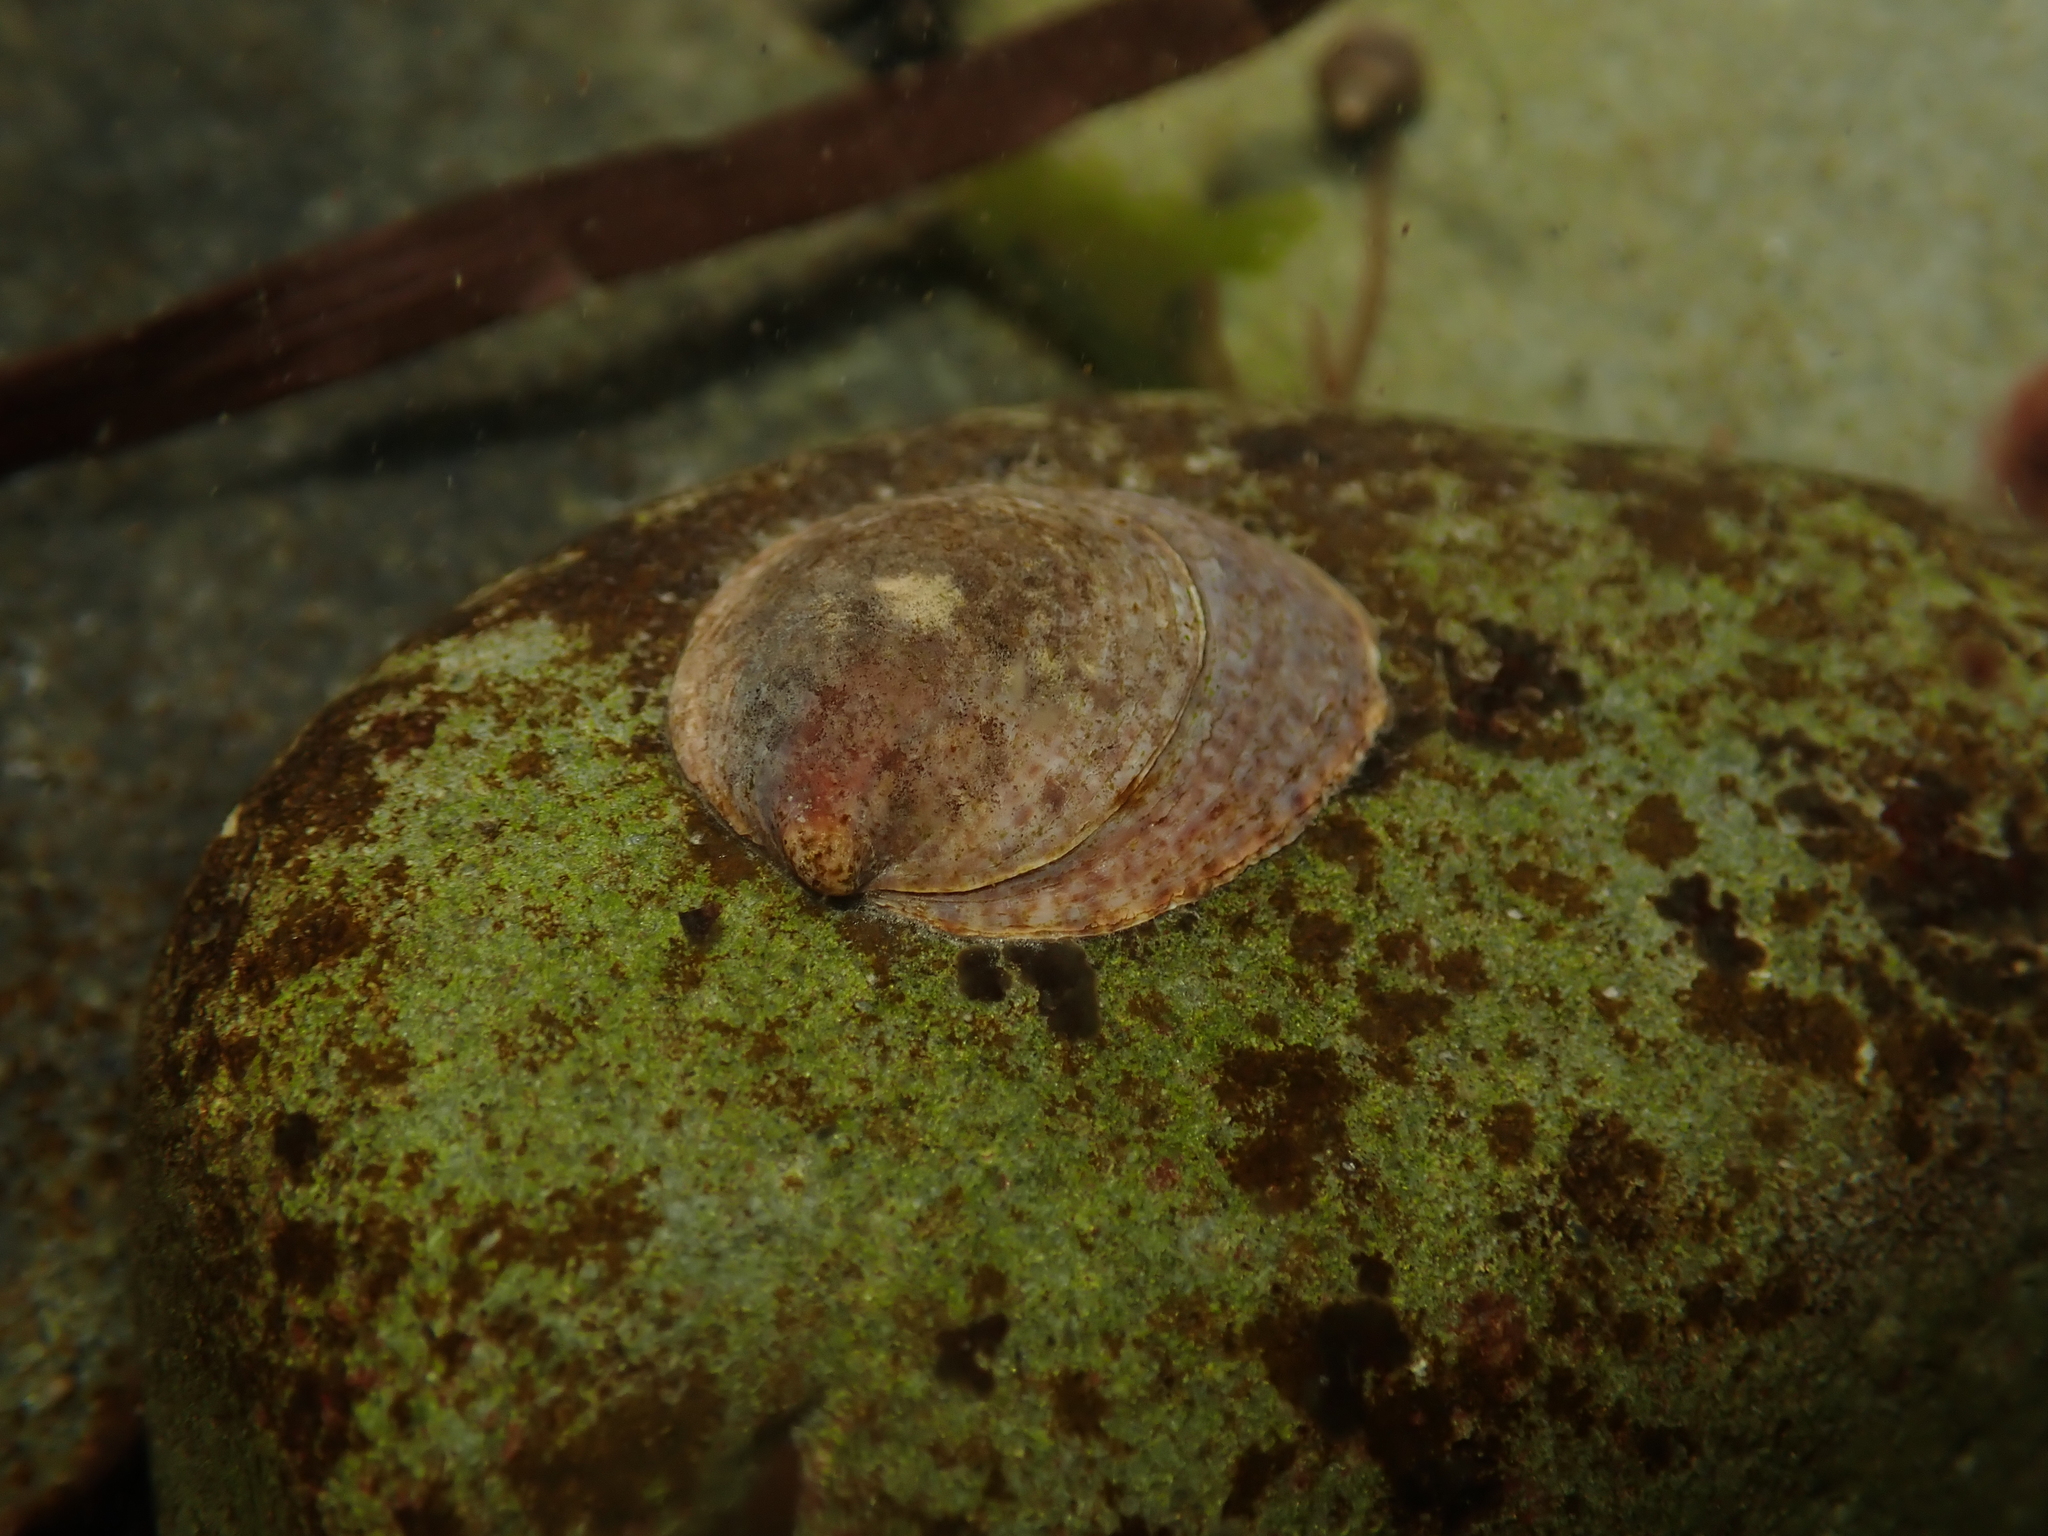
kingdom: Animalia
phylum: Mollusca
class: Gastropoda
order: Littorinimorpha
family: Calyptraeidae
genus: Crepidula
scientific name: Crepidula fornicata
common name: Slipper limpet
